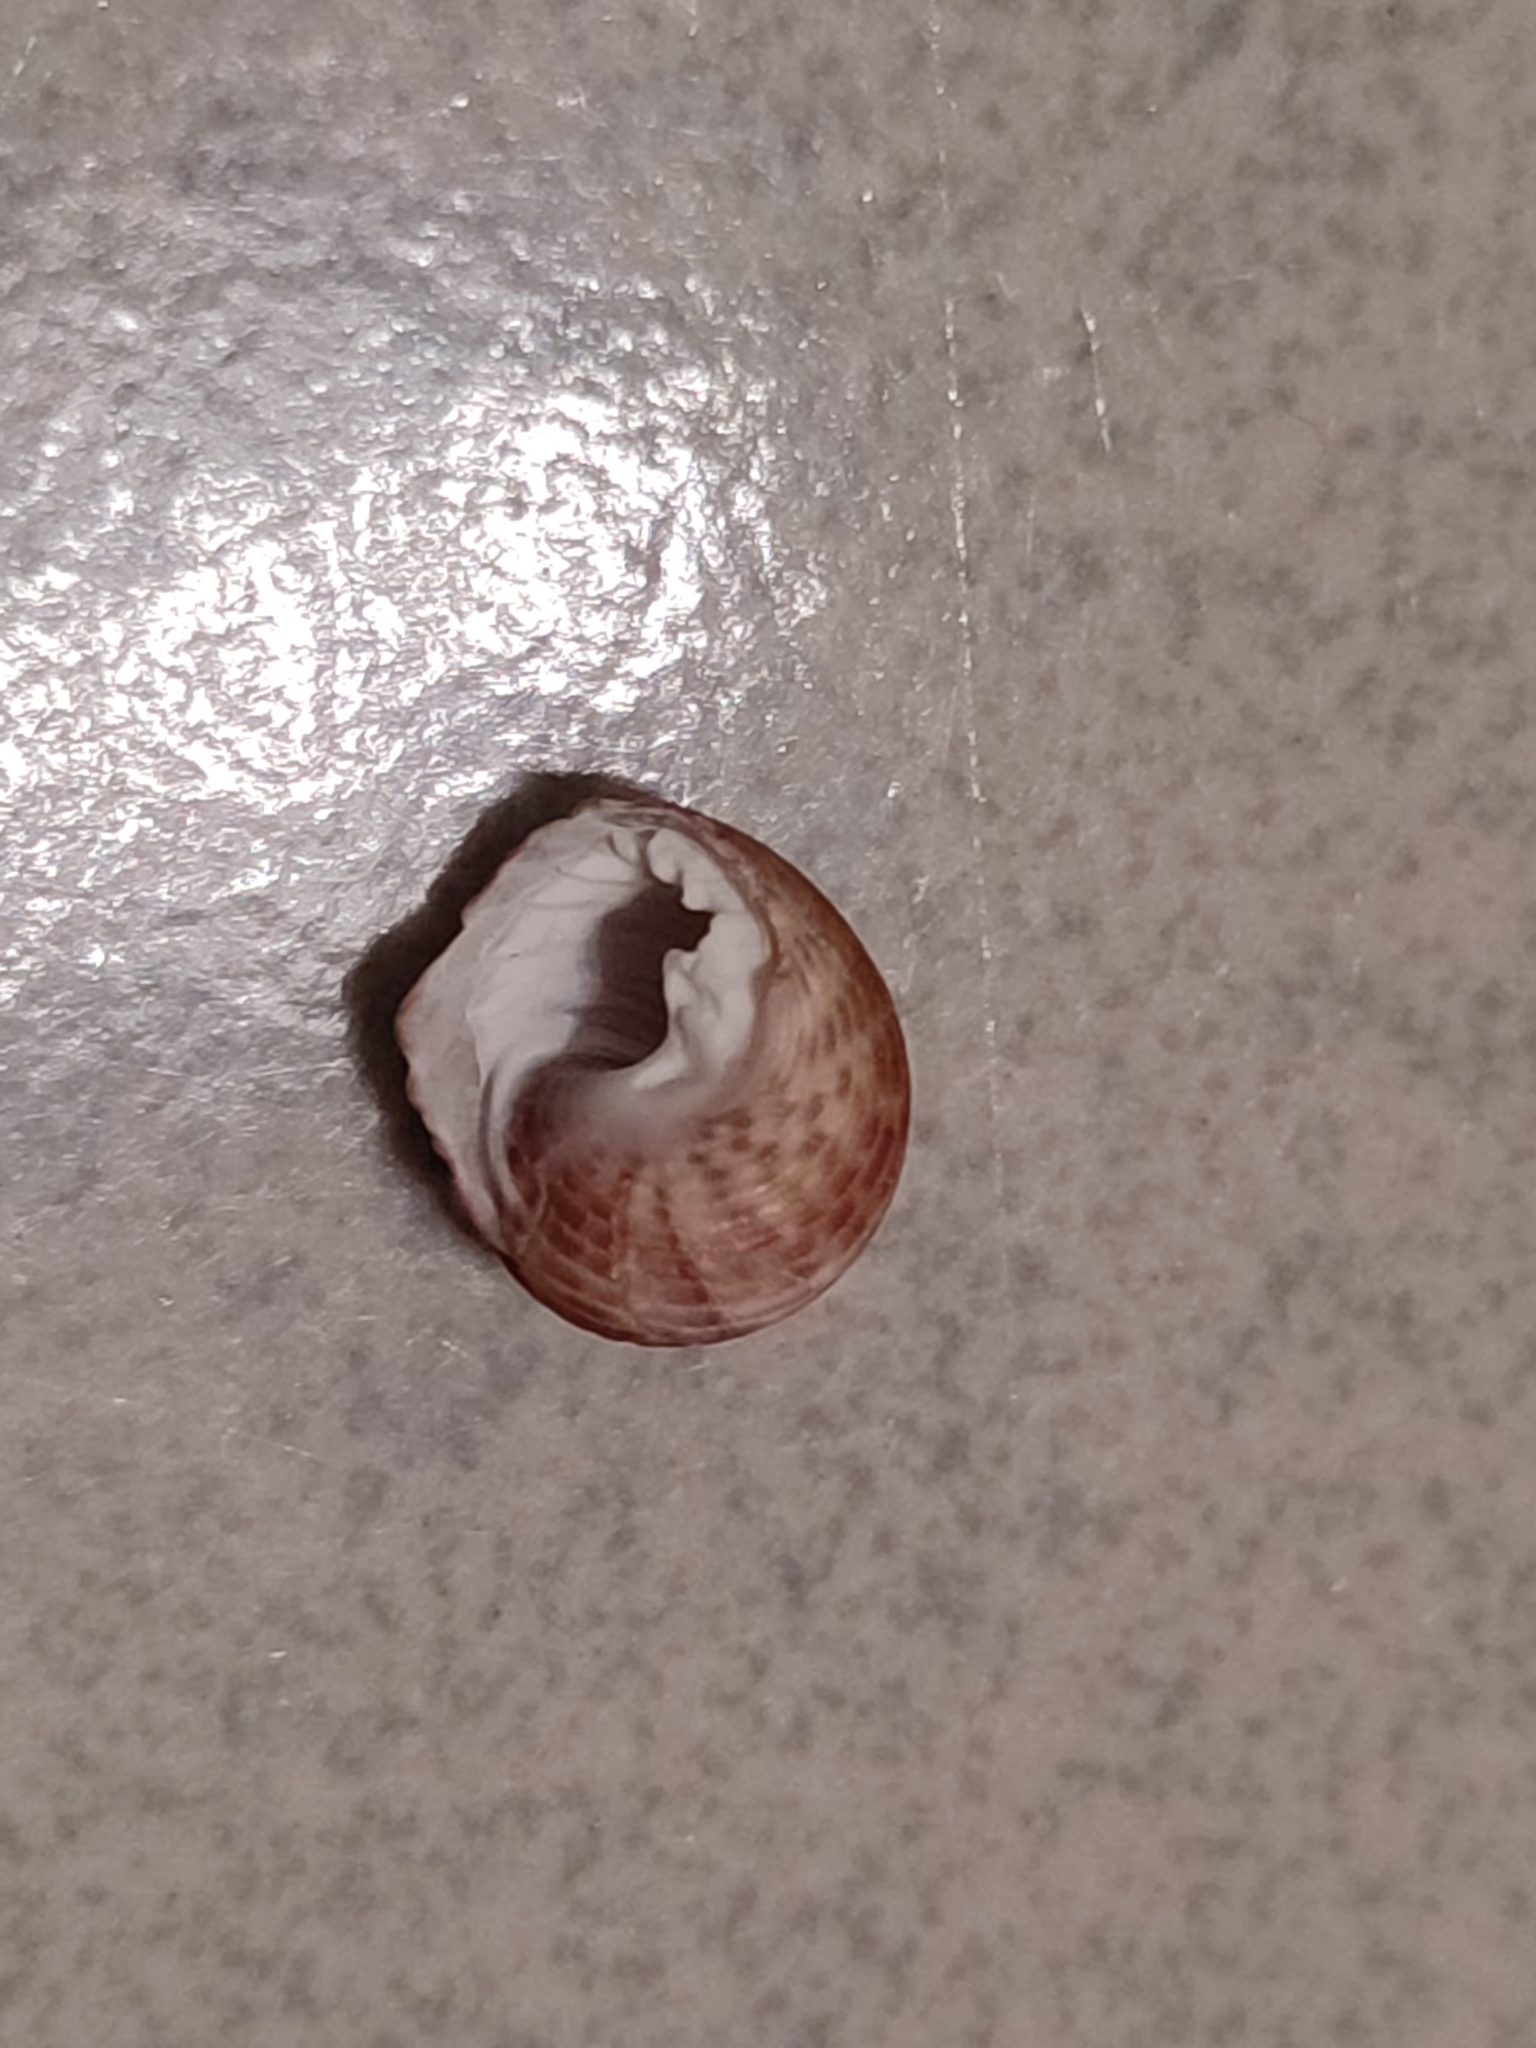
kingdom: Animalia
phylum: Mollusca
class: Gastropoda
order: Trochida
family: Trochidae
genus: Monodonta
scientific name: Monodonta labio
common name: Labio
